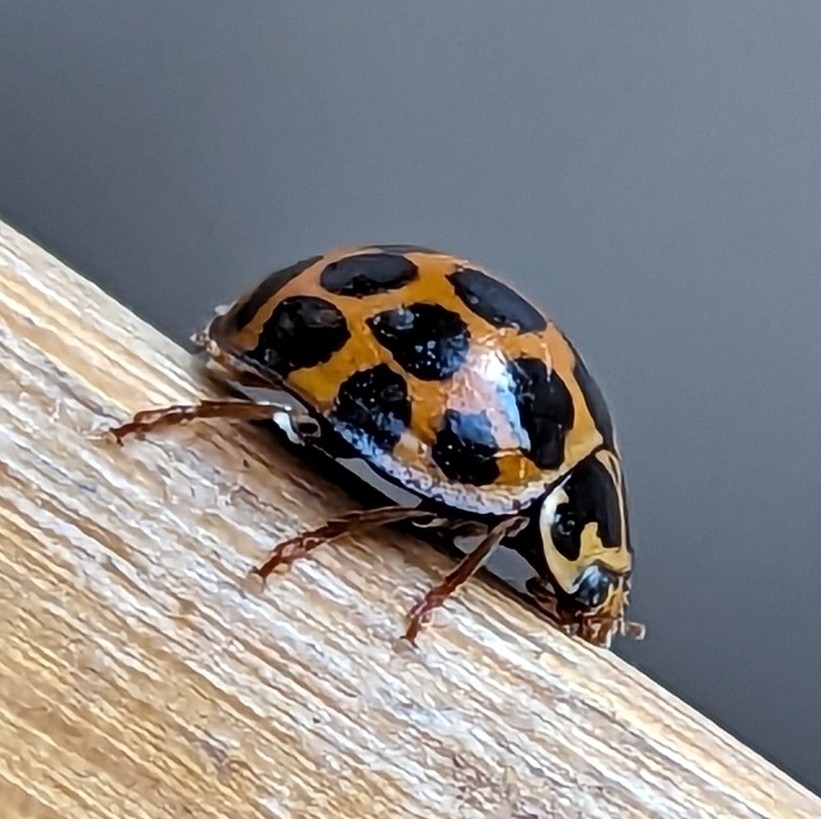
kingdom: Animalia
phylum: Arthropoda
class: Insecta
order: Coleoptera
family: Coccinellidae
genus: Harmonia
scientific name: Harmonia conformis
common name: Common spotted ladybird beetle
